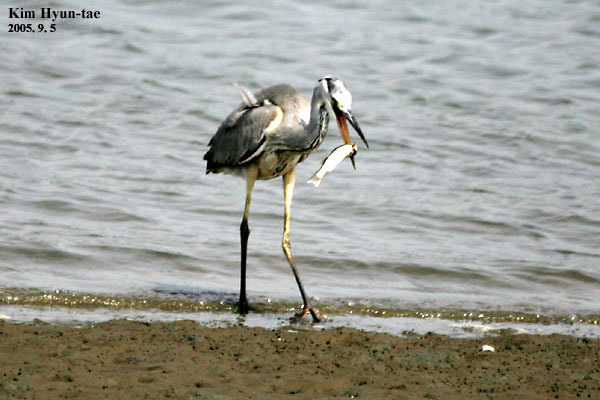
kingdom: Animalia
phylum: Chordata
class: Aves
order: Pelecaniformes
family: Ardeidae
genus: Ardea
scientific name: Ardea cinerea
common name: Grey heron
